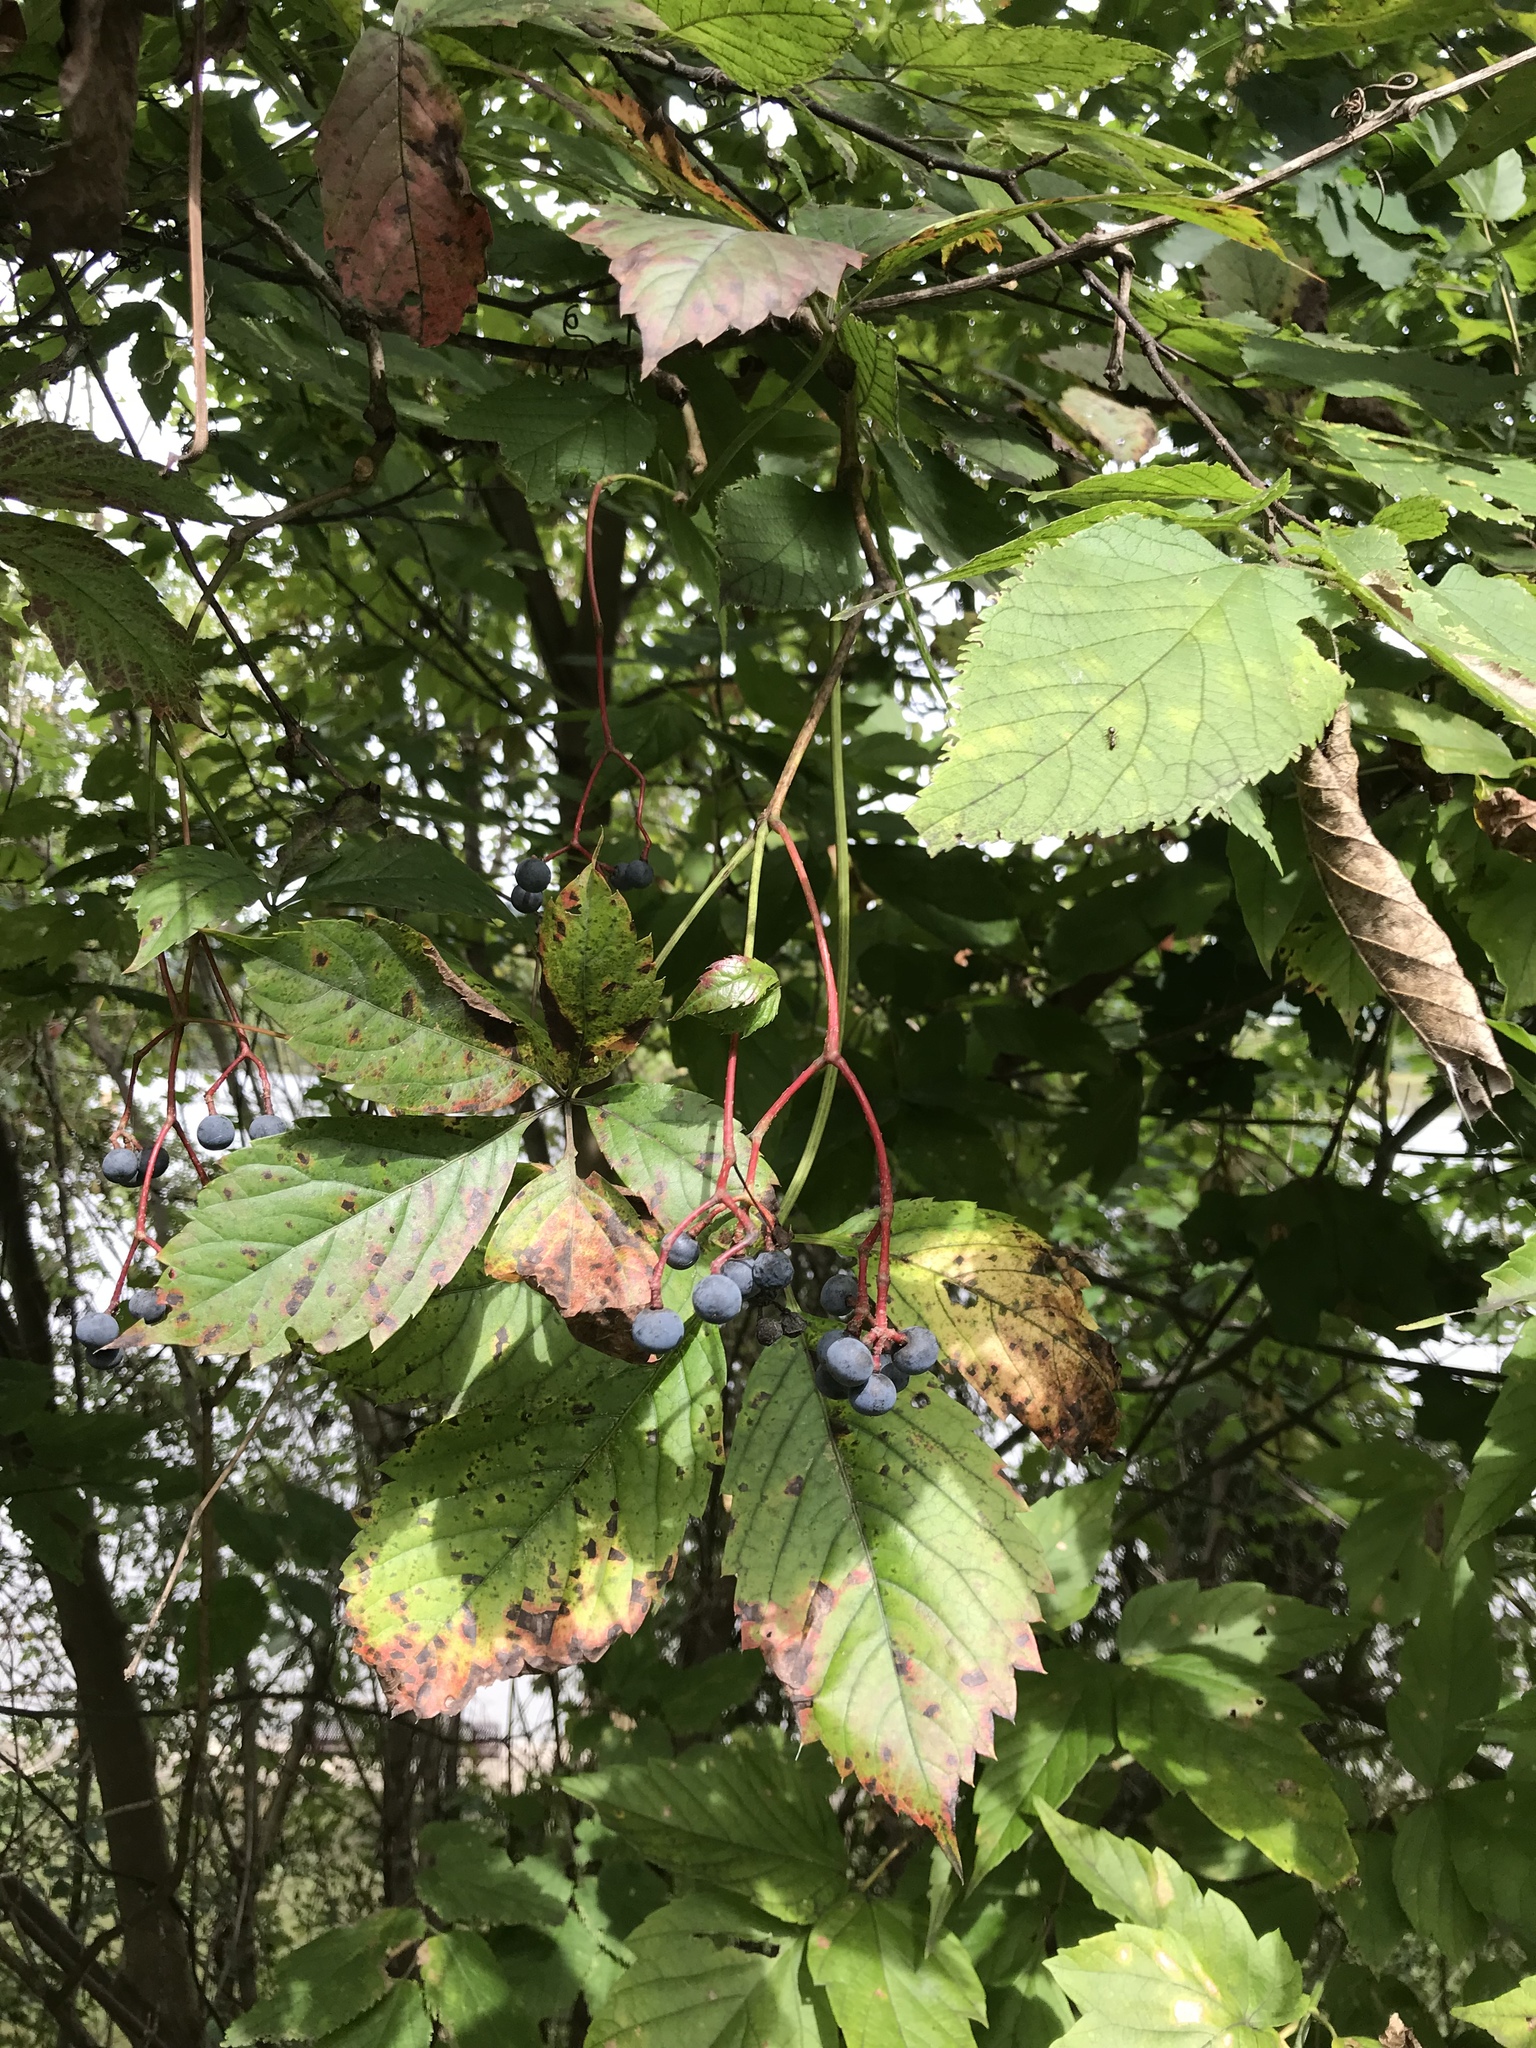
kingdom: Plantae
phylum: Tracheophyta
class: Magnoliopsida
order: Vitales
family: Vitaceae
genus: Parthenocissus
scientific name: Parthenocissus inserta
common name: False virginia-creeper
